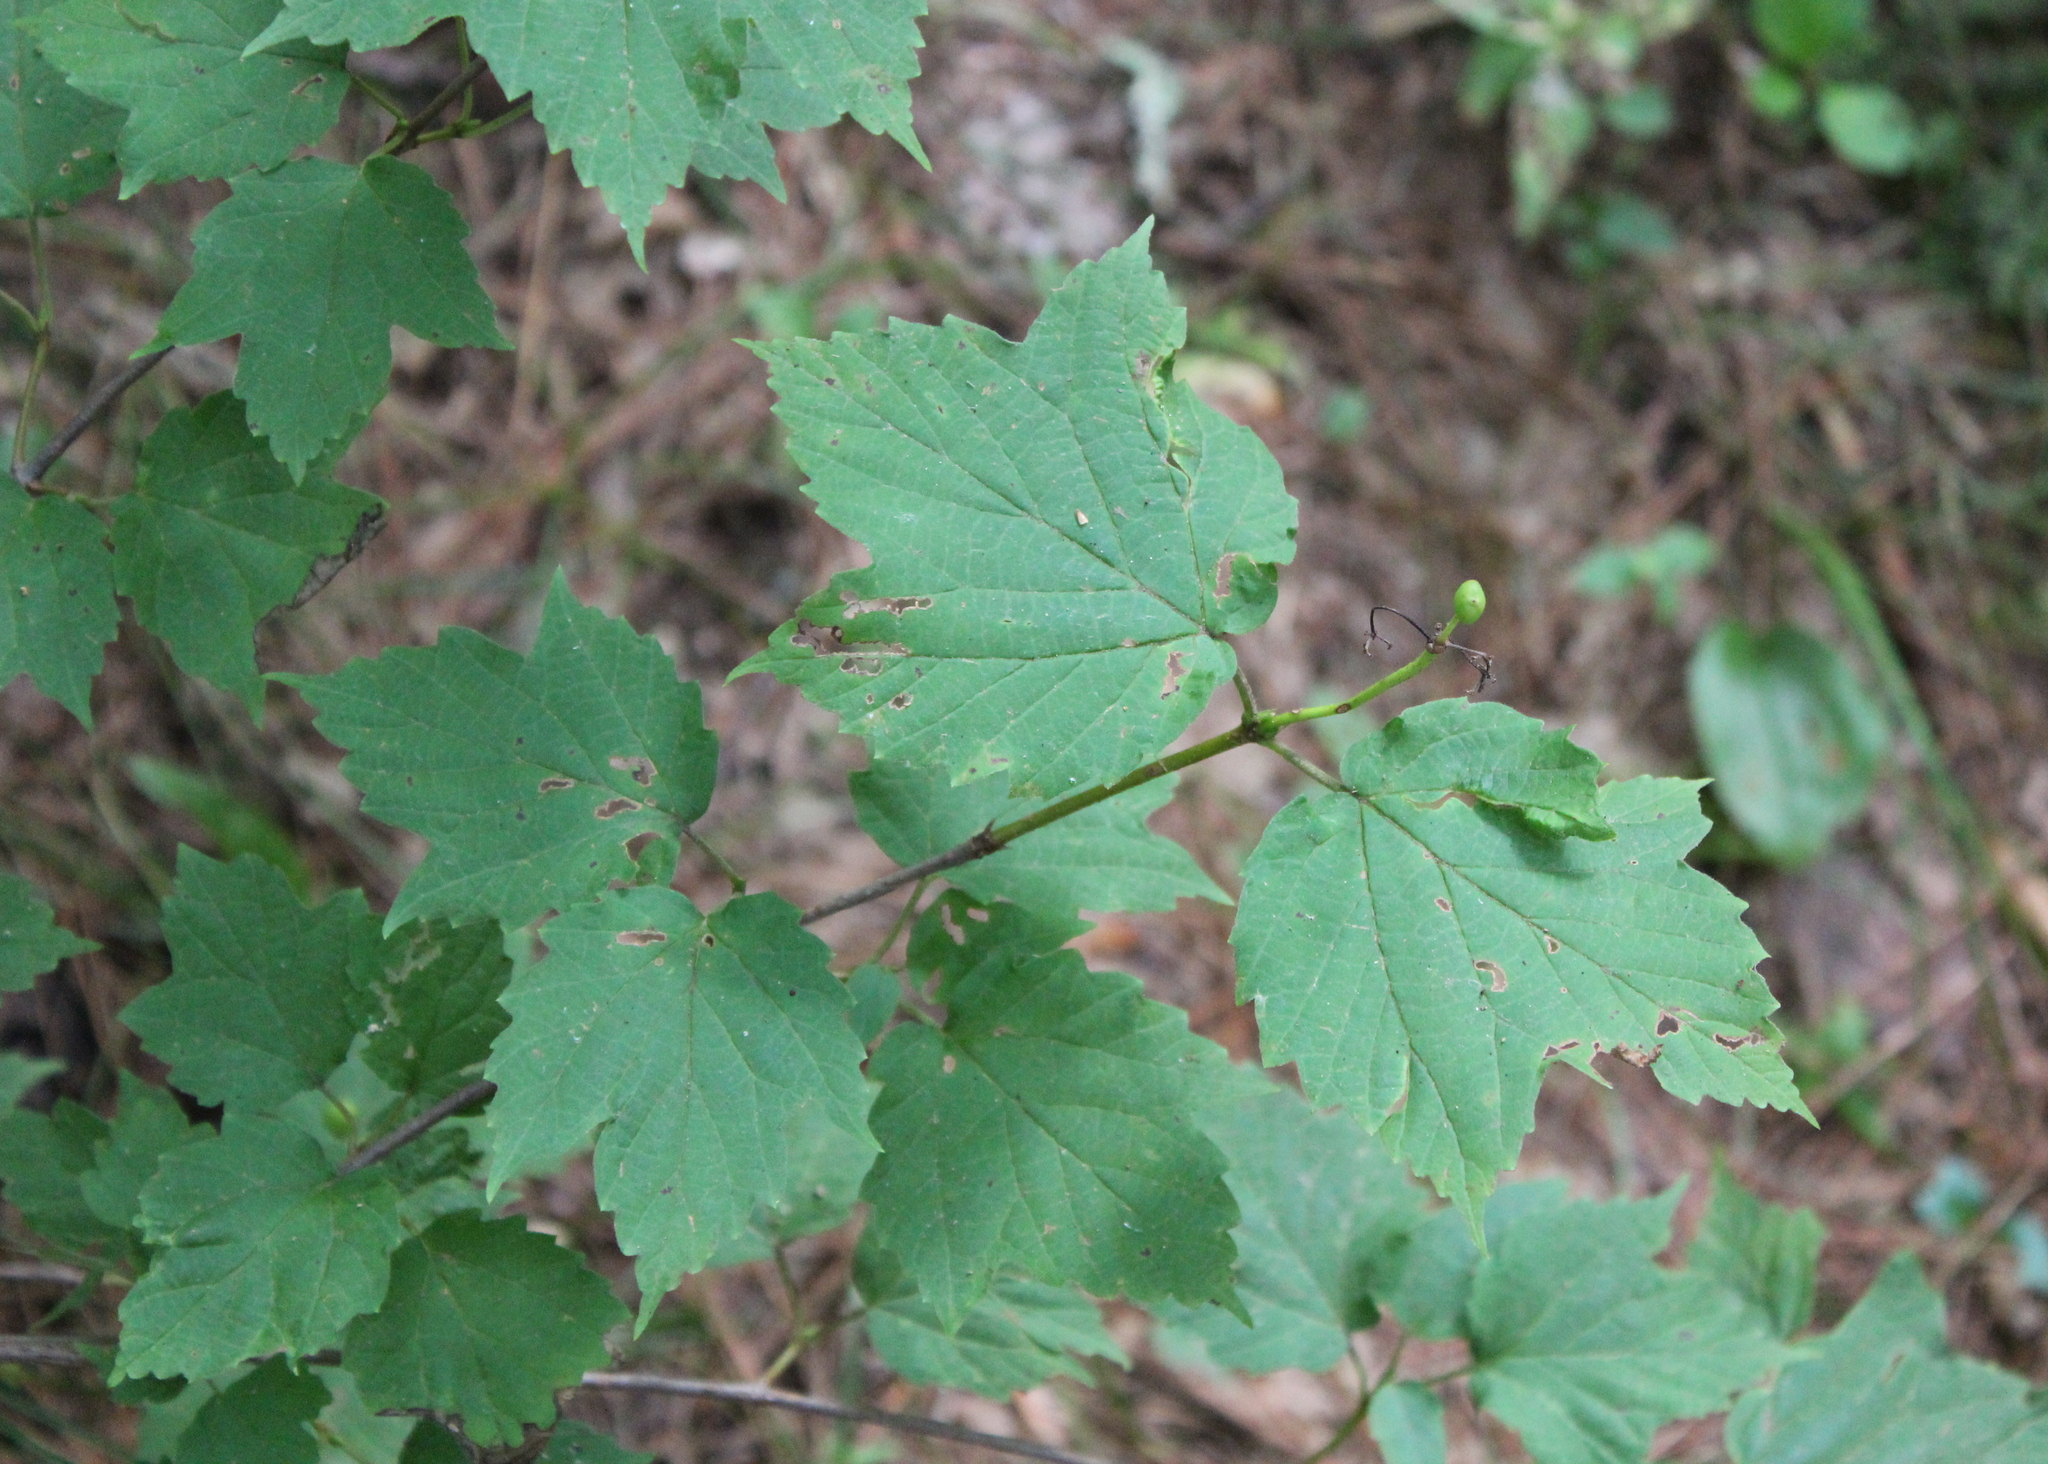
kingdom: Plantae
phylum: Tracheophyta
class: Magnoliopsida
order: Dipsacales
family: Viburnaceae
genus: Viburnum
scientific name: Viburnum acerifolium
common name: Dockmackie
